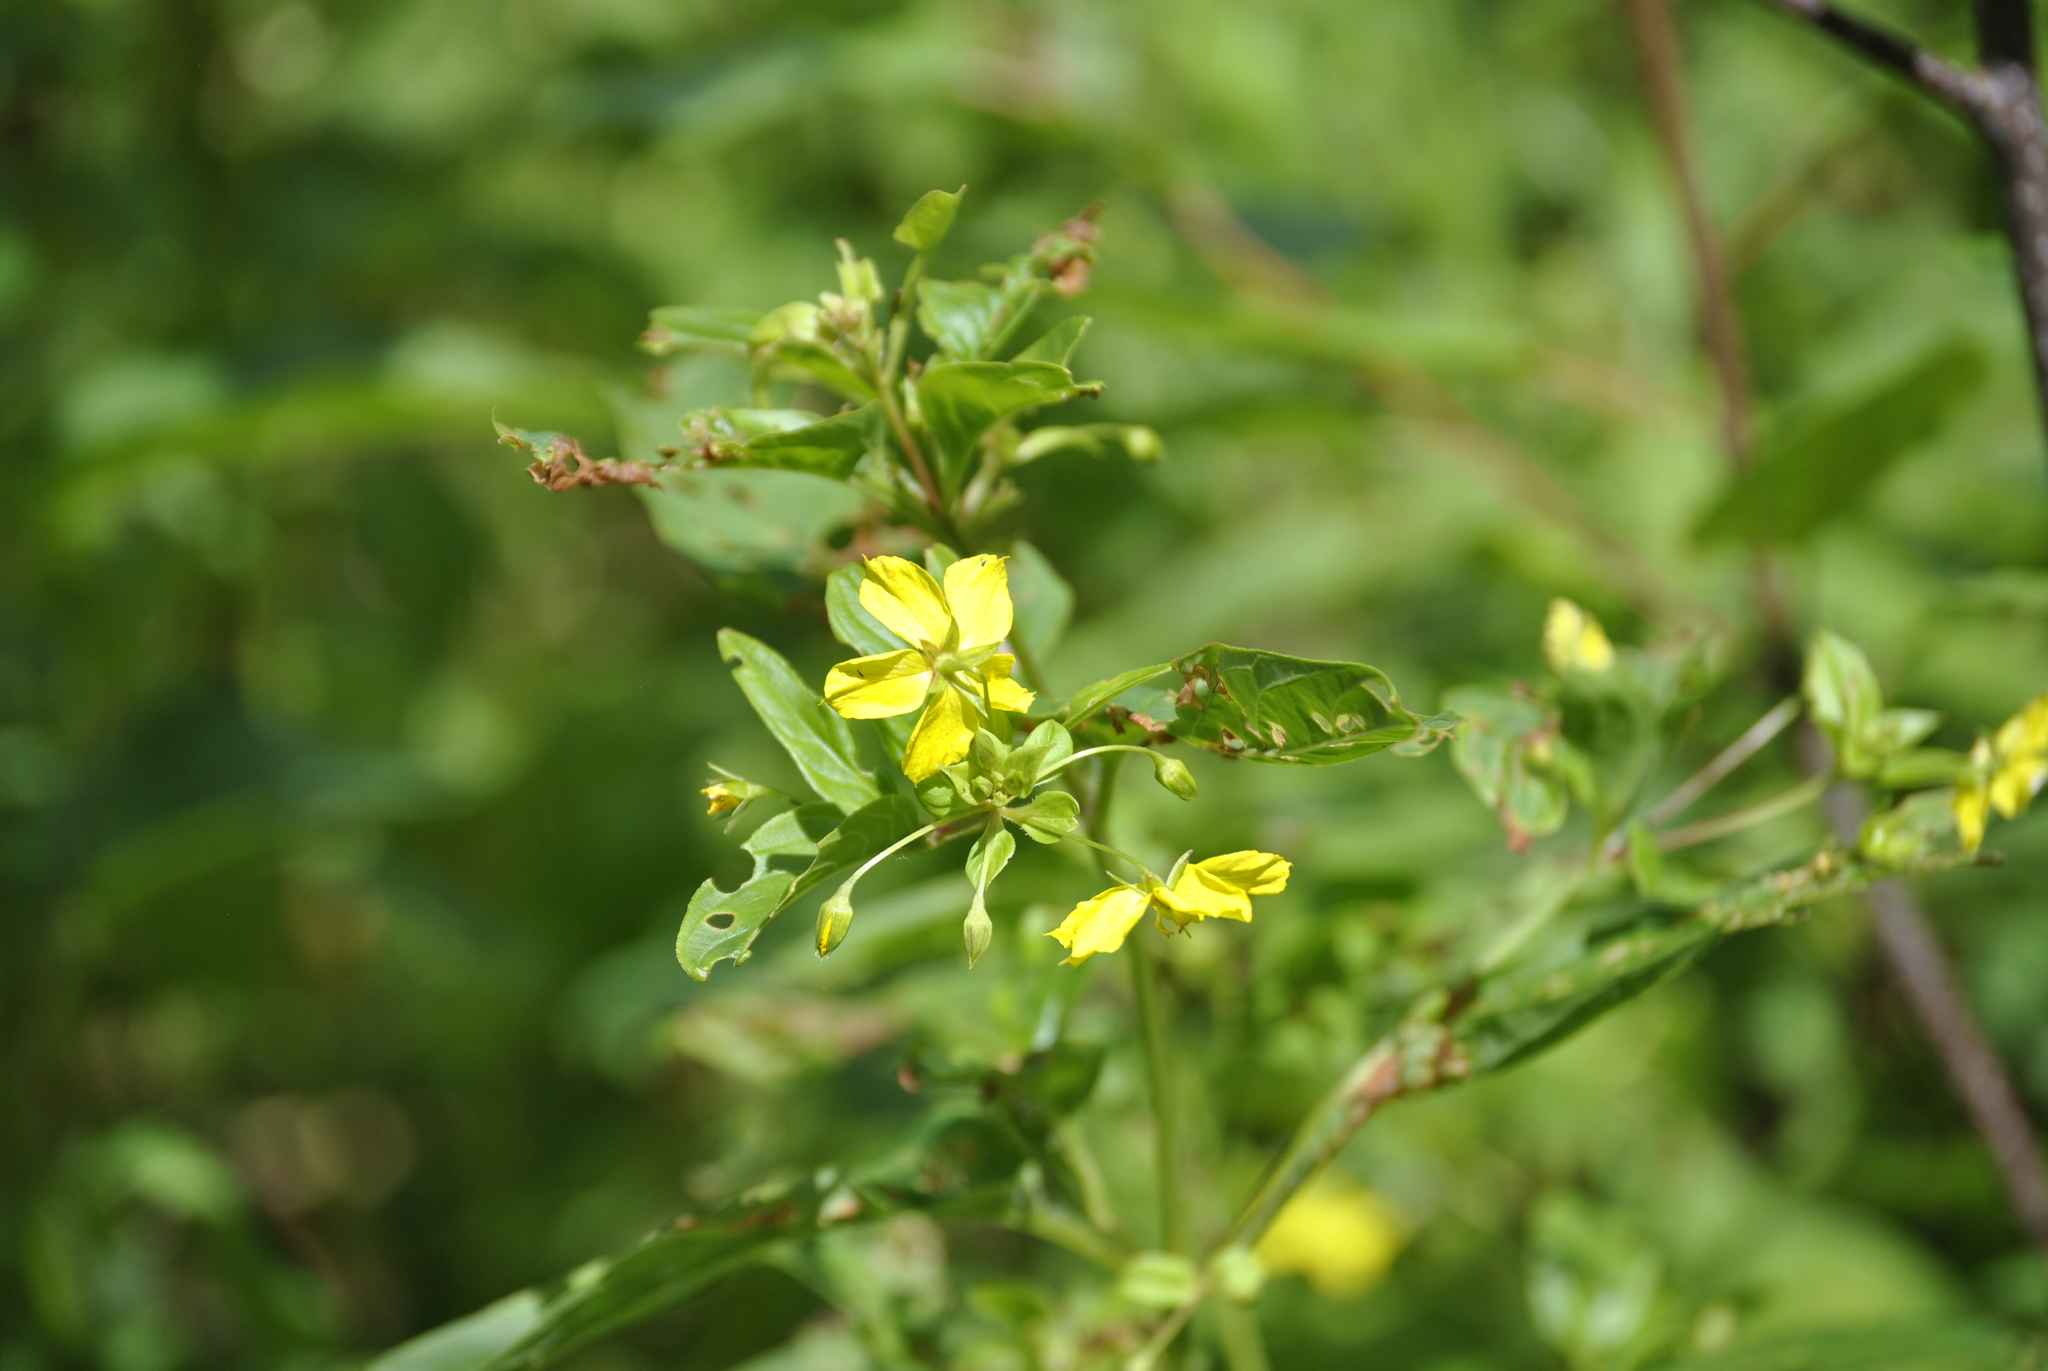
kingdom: Plantae
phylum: Tracheophyta
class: Magnoliopsida
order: Ericales
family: Primulaceae
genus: Lysimachia
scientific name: Lysimachia ciliata
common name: Fringed loosestrife
